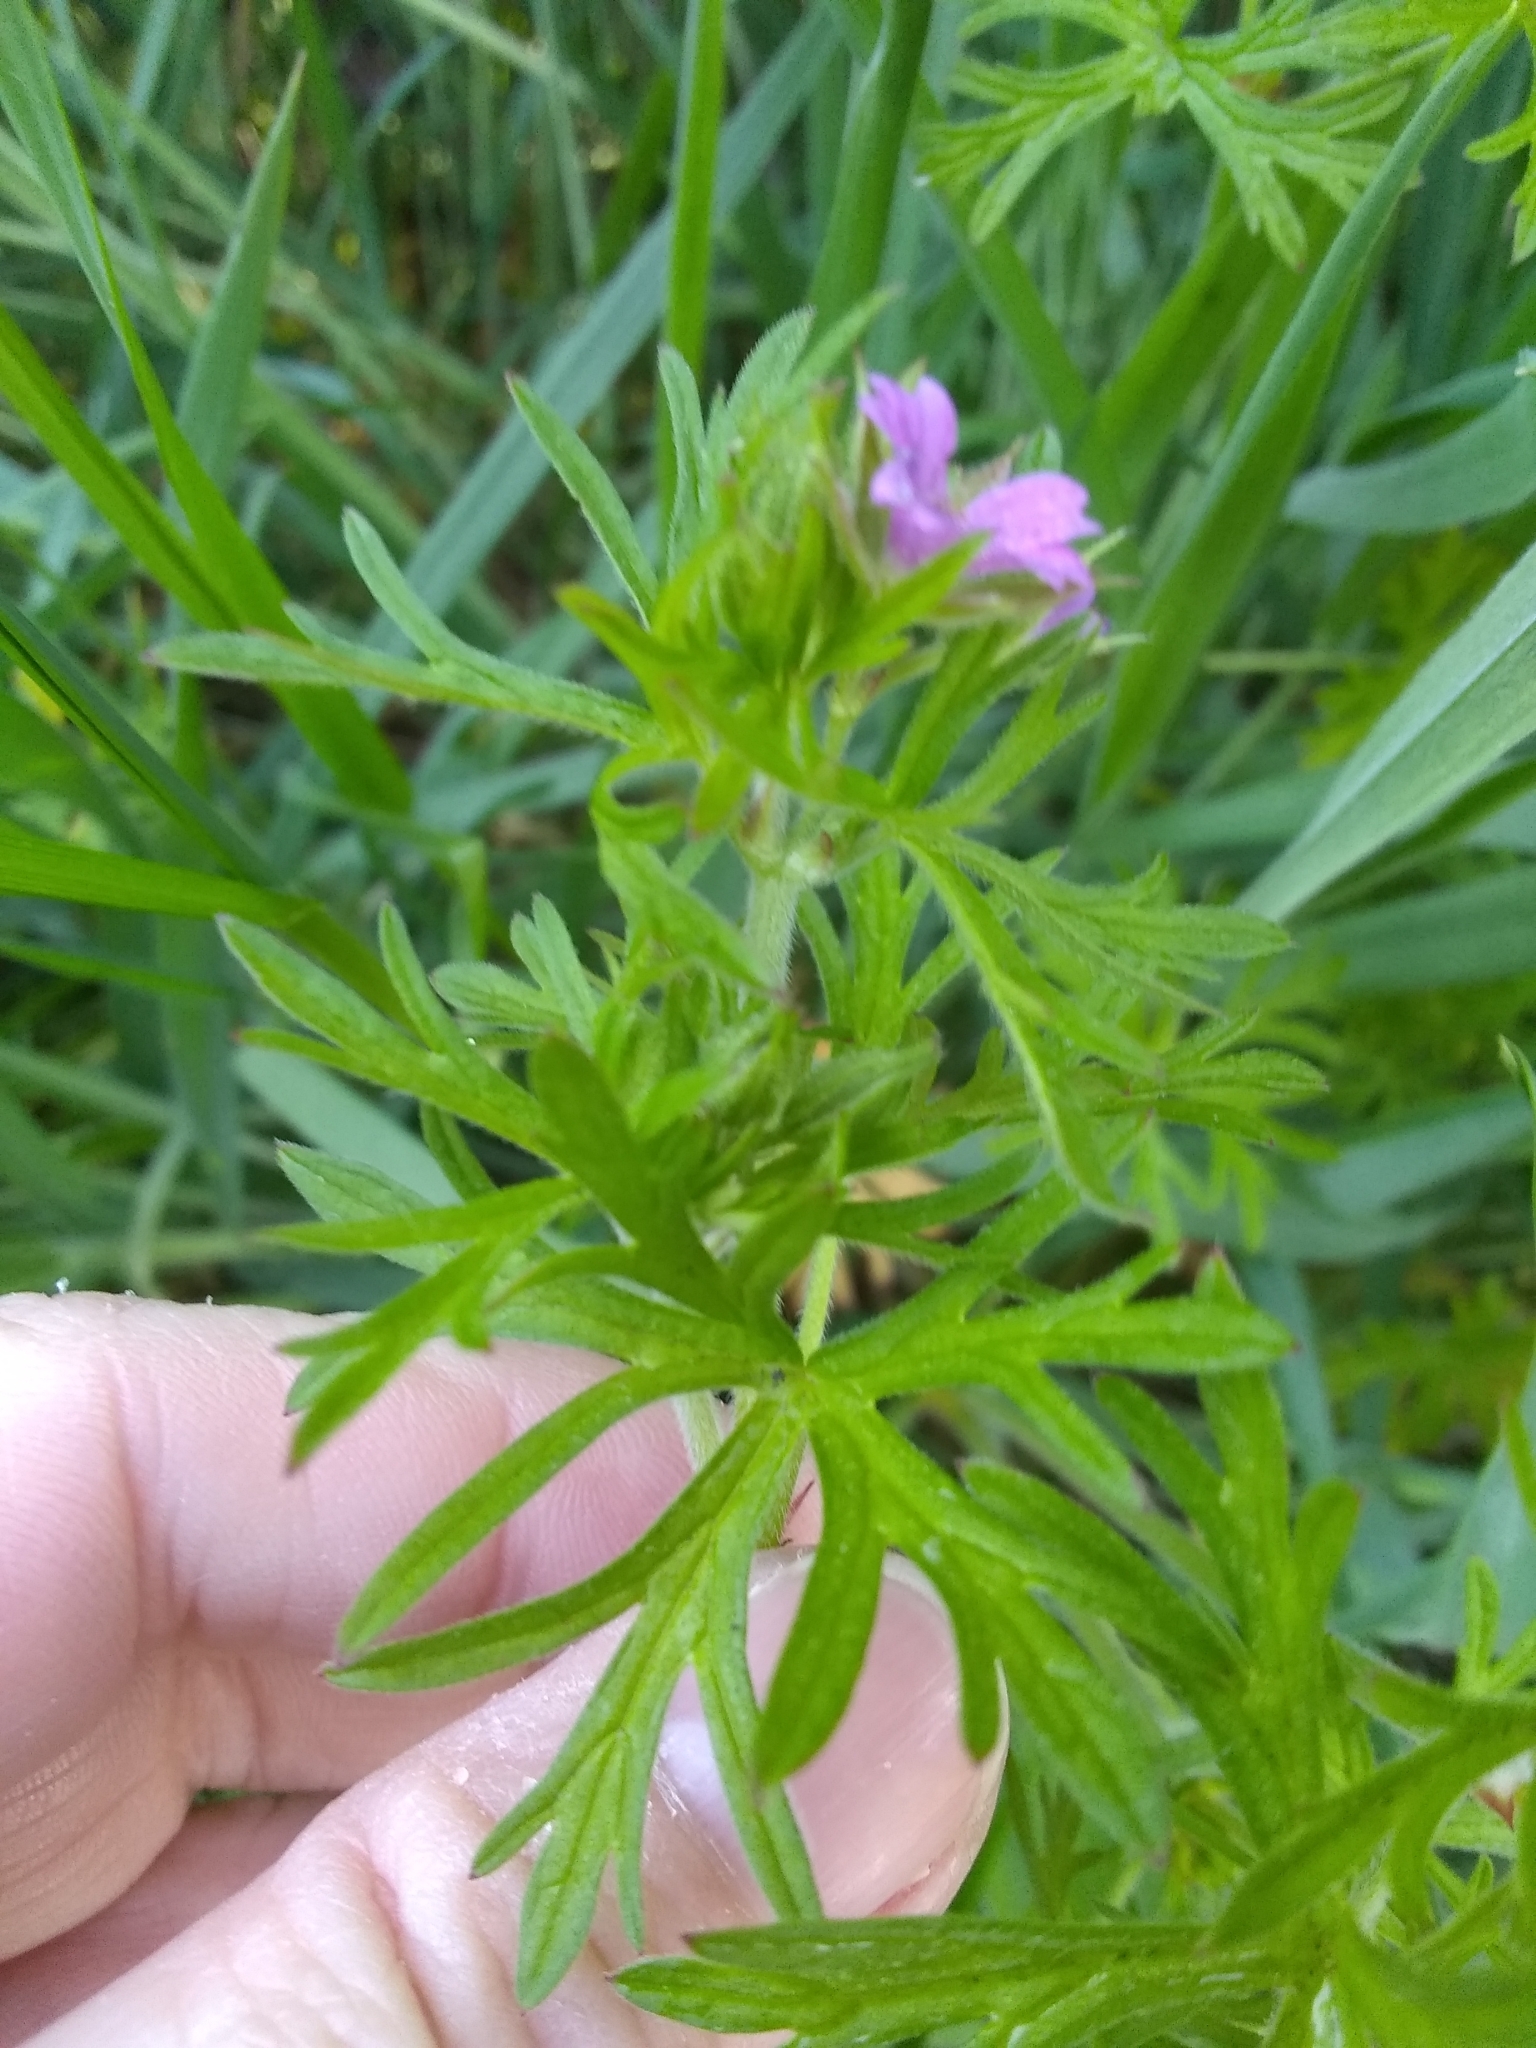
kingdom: Plantae
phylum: Tracheophyta
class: Magnoliopsida
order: Geraniales
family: Geraniaceae
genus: Geranium
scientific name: Geranium dissectum
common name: Cut-leaved crane's-bill
